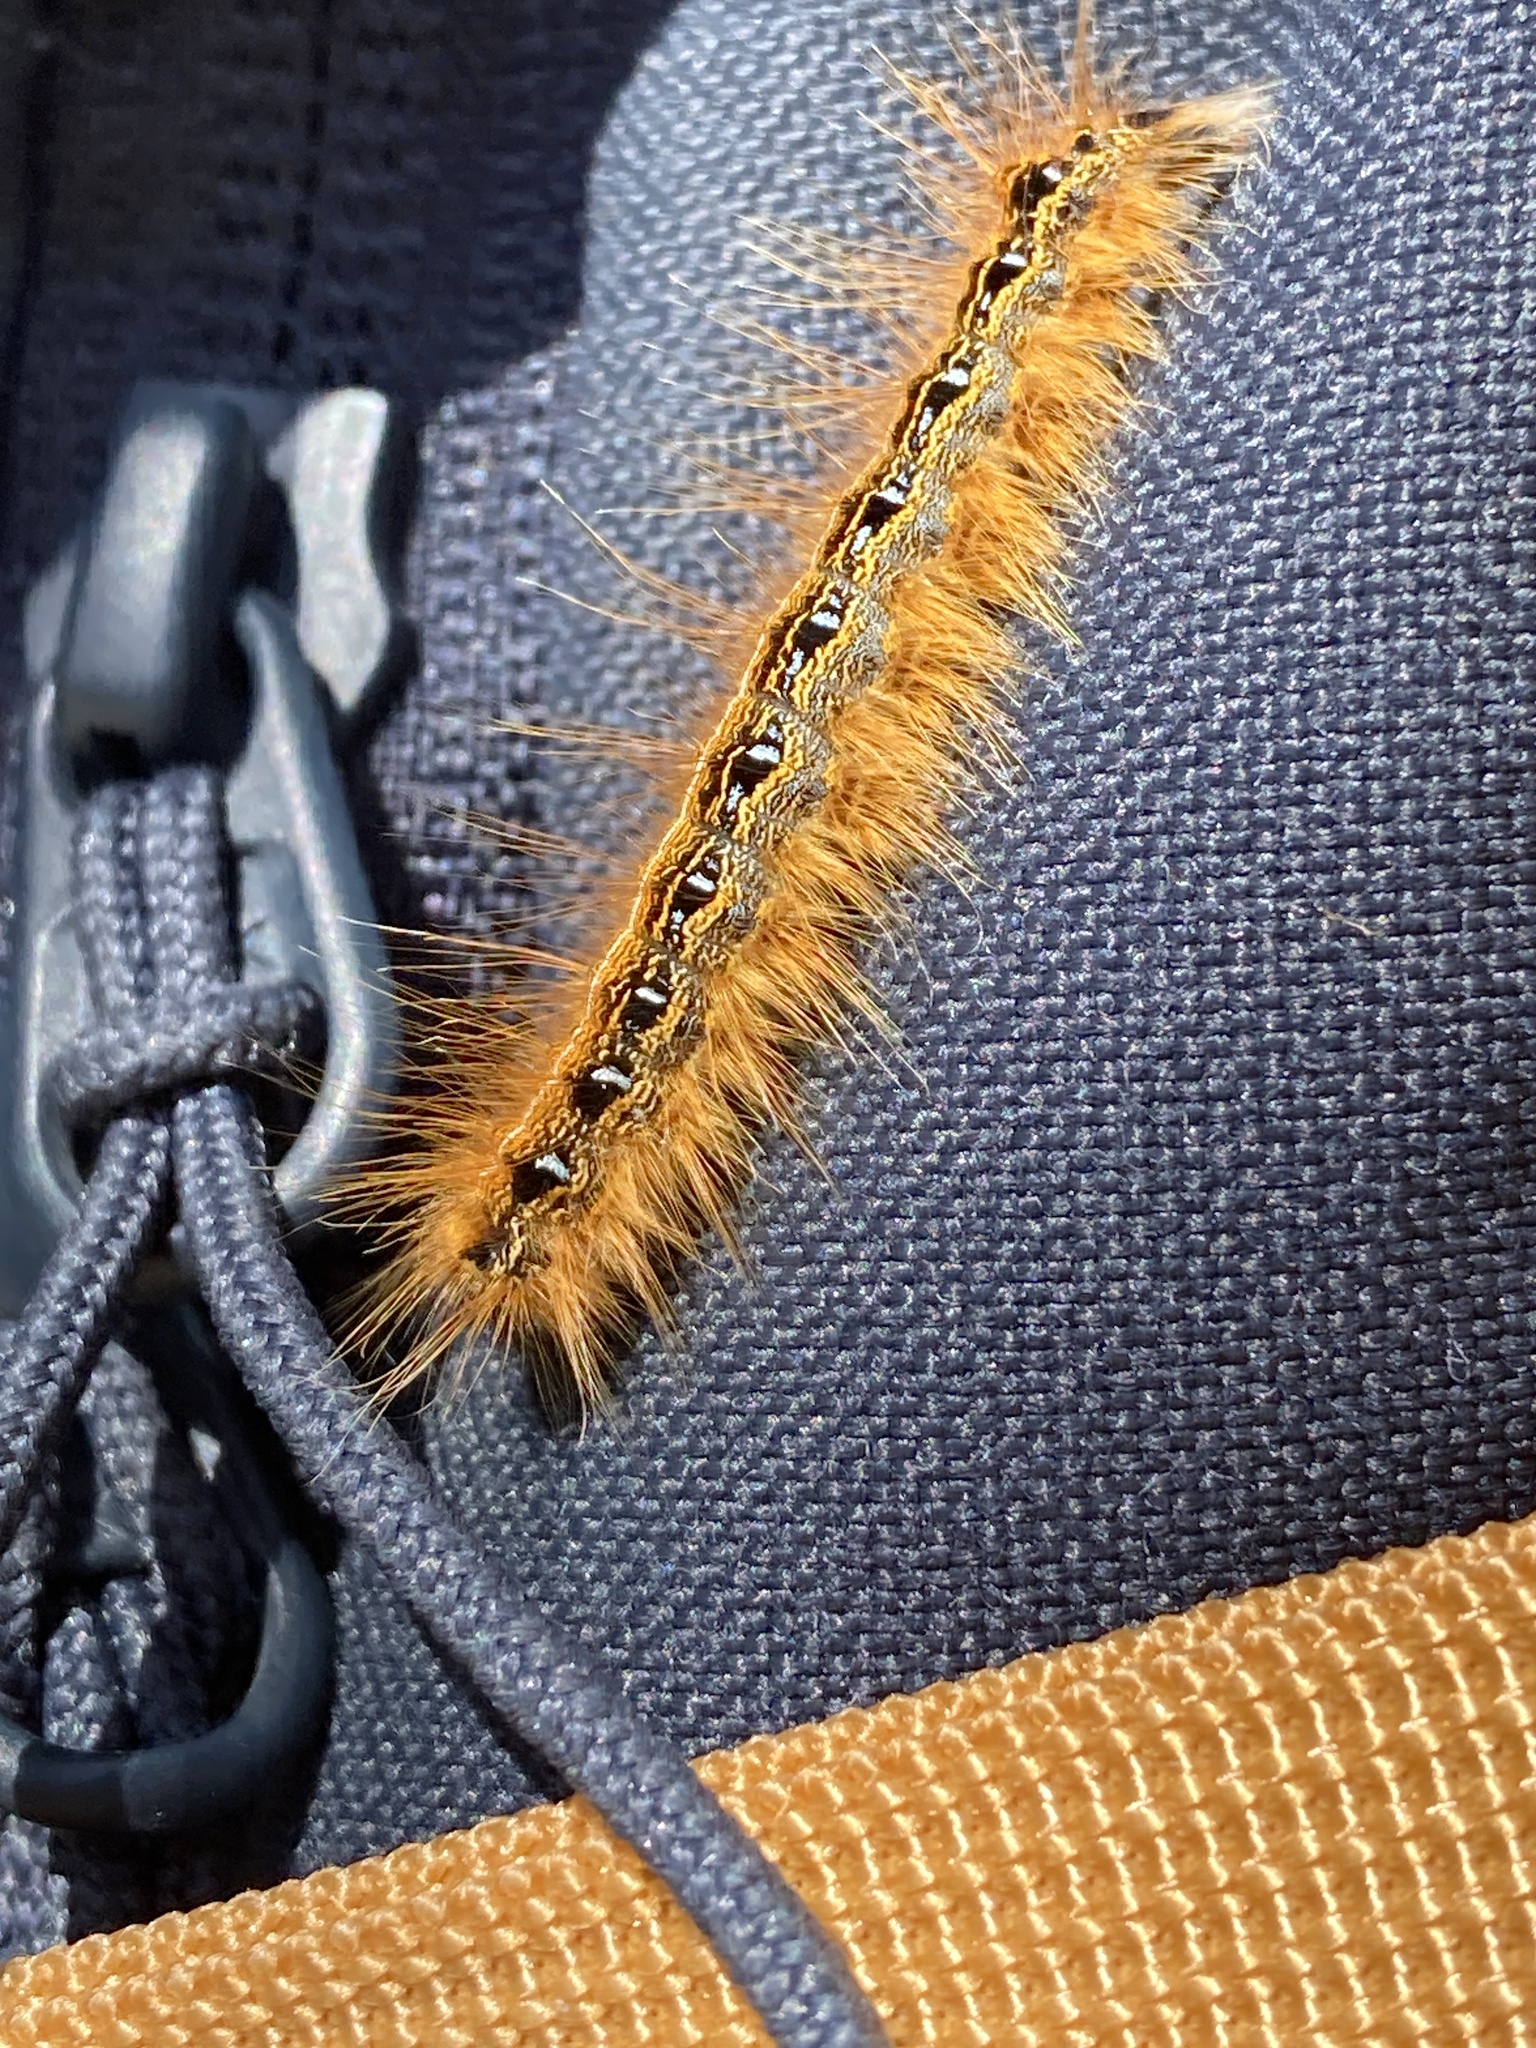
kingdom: Animalia
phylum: Arthropoda
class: Insecta
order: Lepidoptera
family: Lasiocampidae
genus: Malacosoma
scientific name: Malacosoma americana
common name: Eastern tent caterpillar moth
